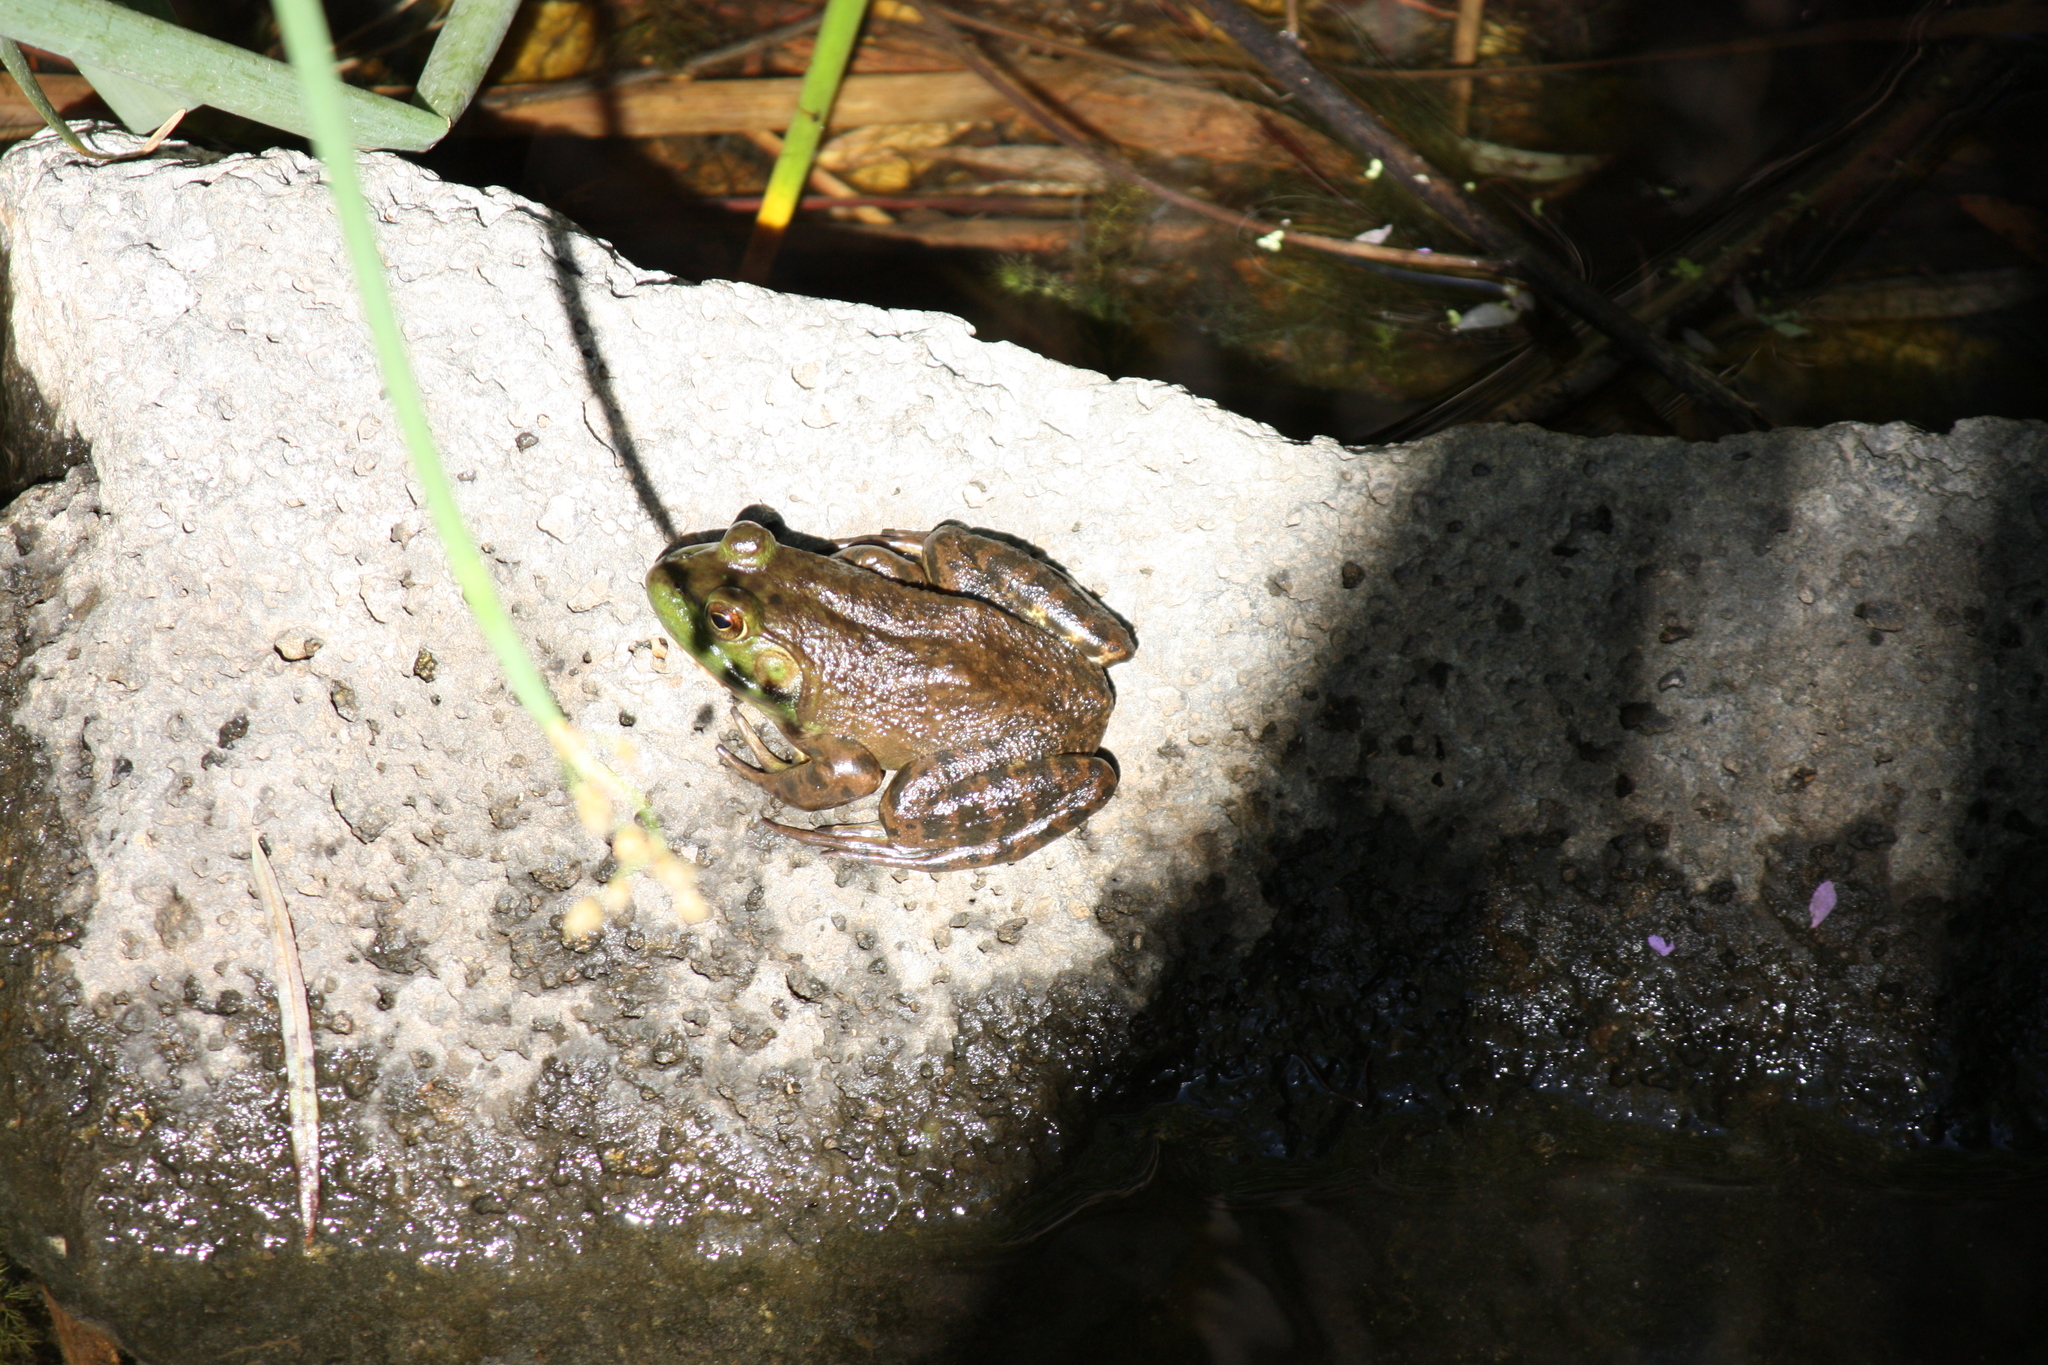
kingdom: Animalia
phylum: Chordata
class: Amphibia
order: Anura
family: Ranidae
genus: Lithobates
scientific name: Lithobates catesbeianus
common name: American bullfrog
